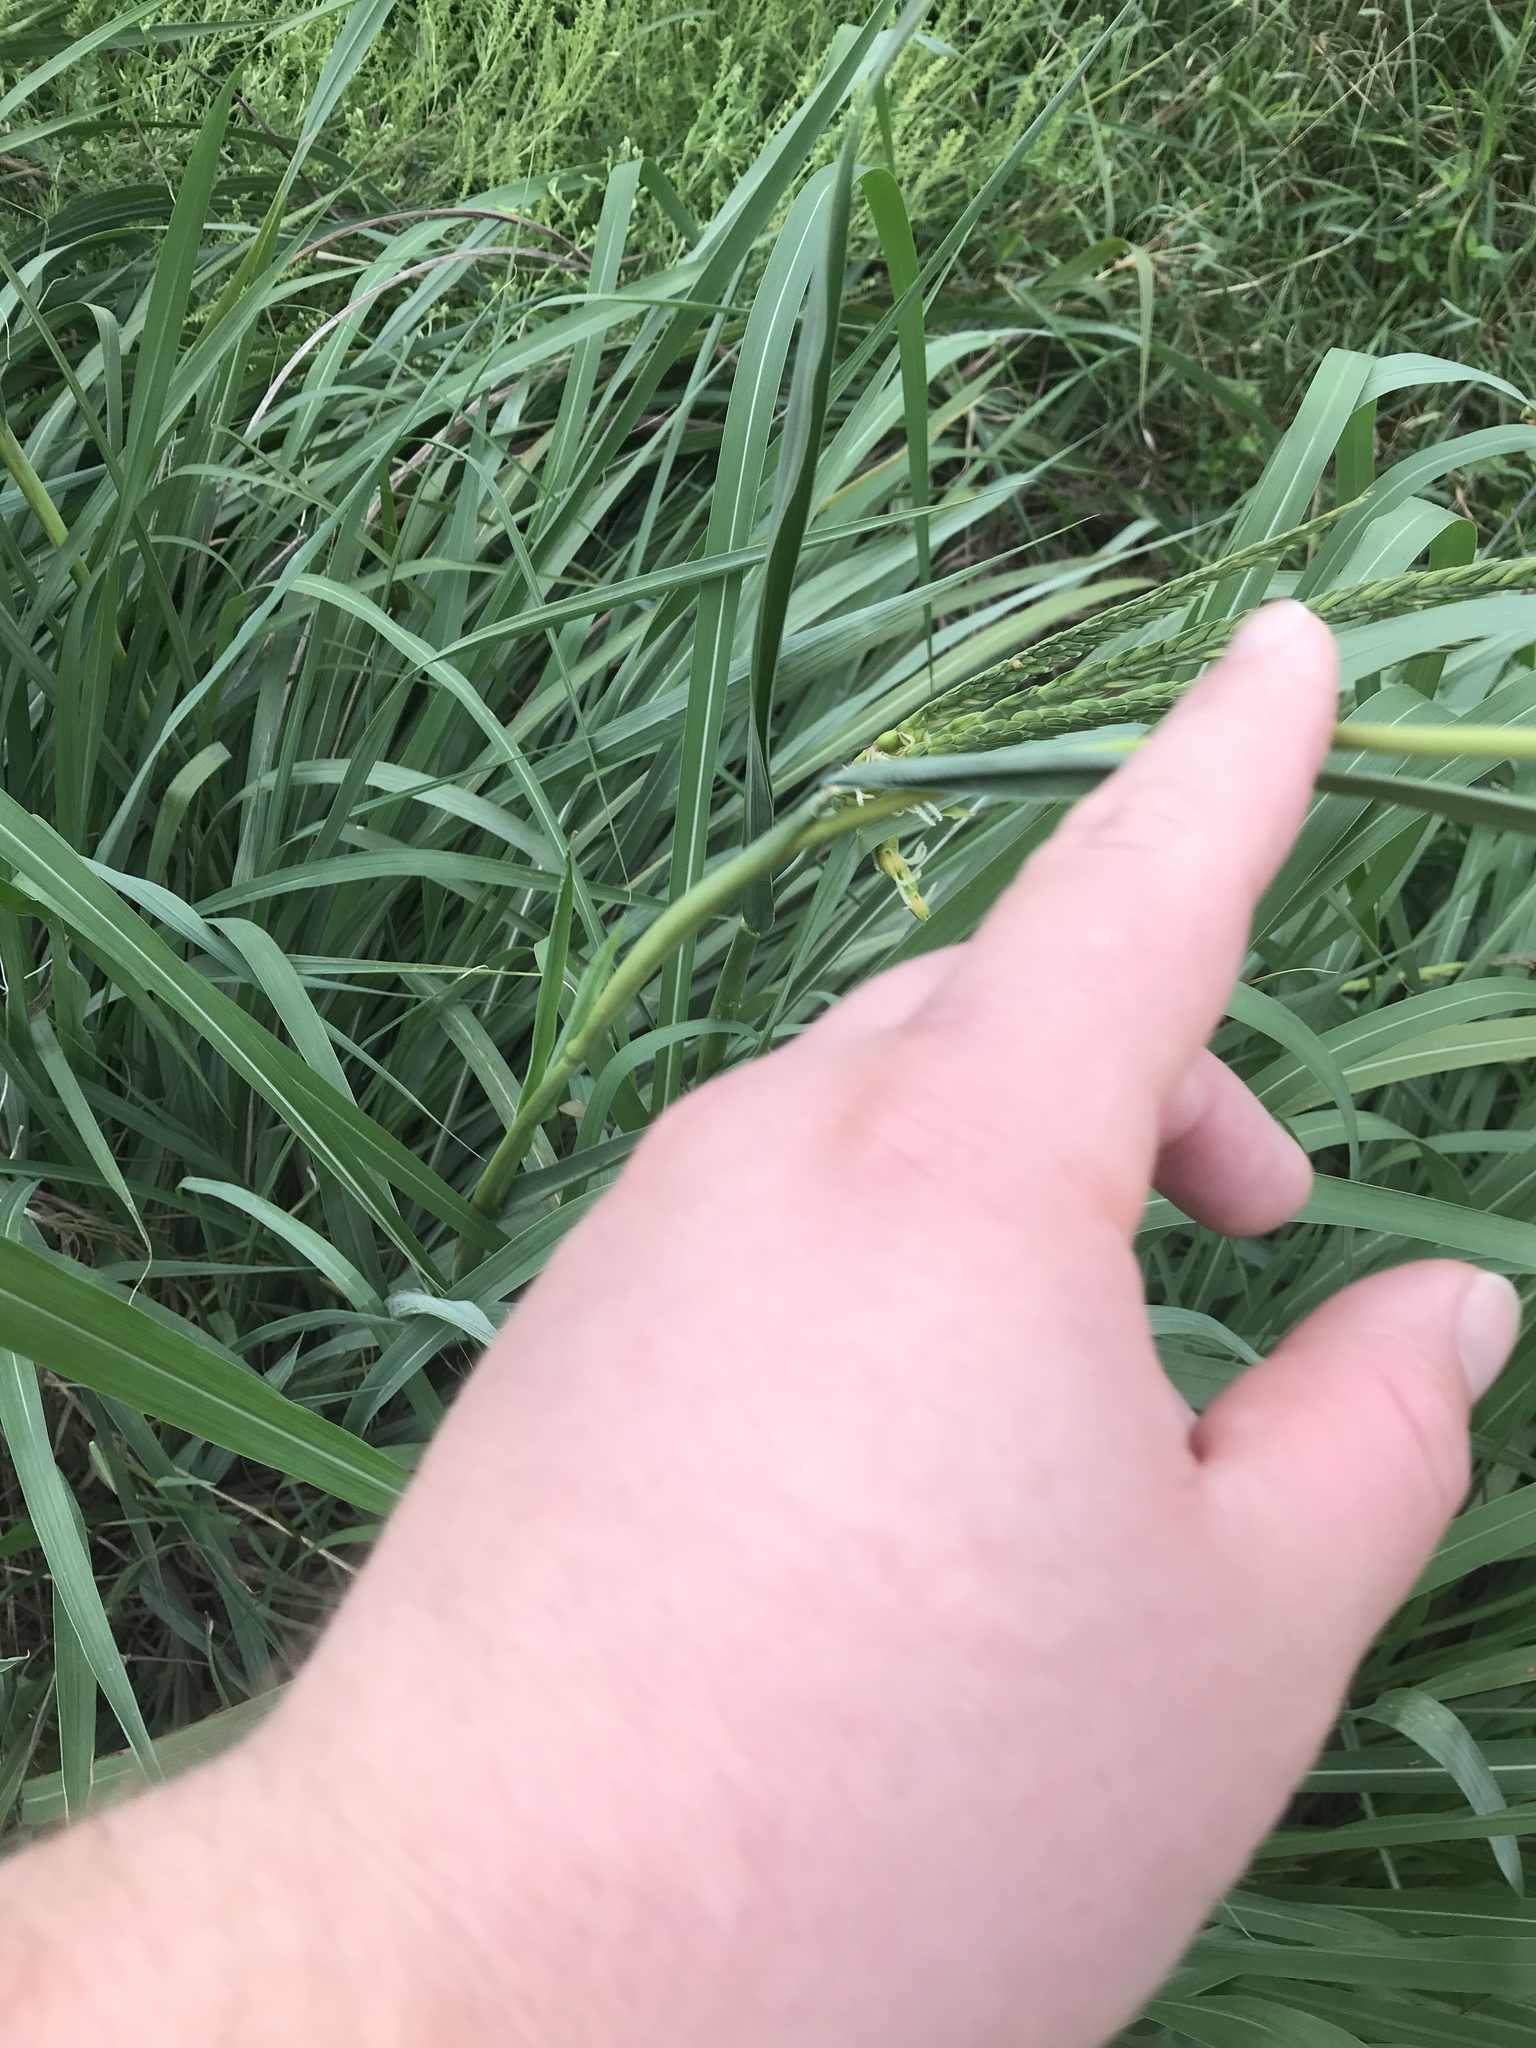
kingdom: Plantae
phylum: Tracheophyta
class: Liliopsida
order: Poales
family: Poaceae
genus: Tripsacum
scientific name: Tripsacum dactyloides
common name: Buffalo-grass
